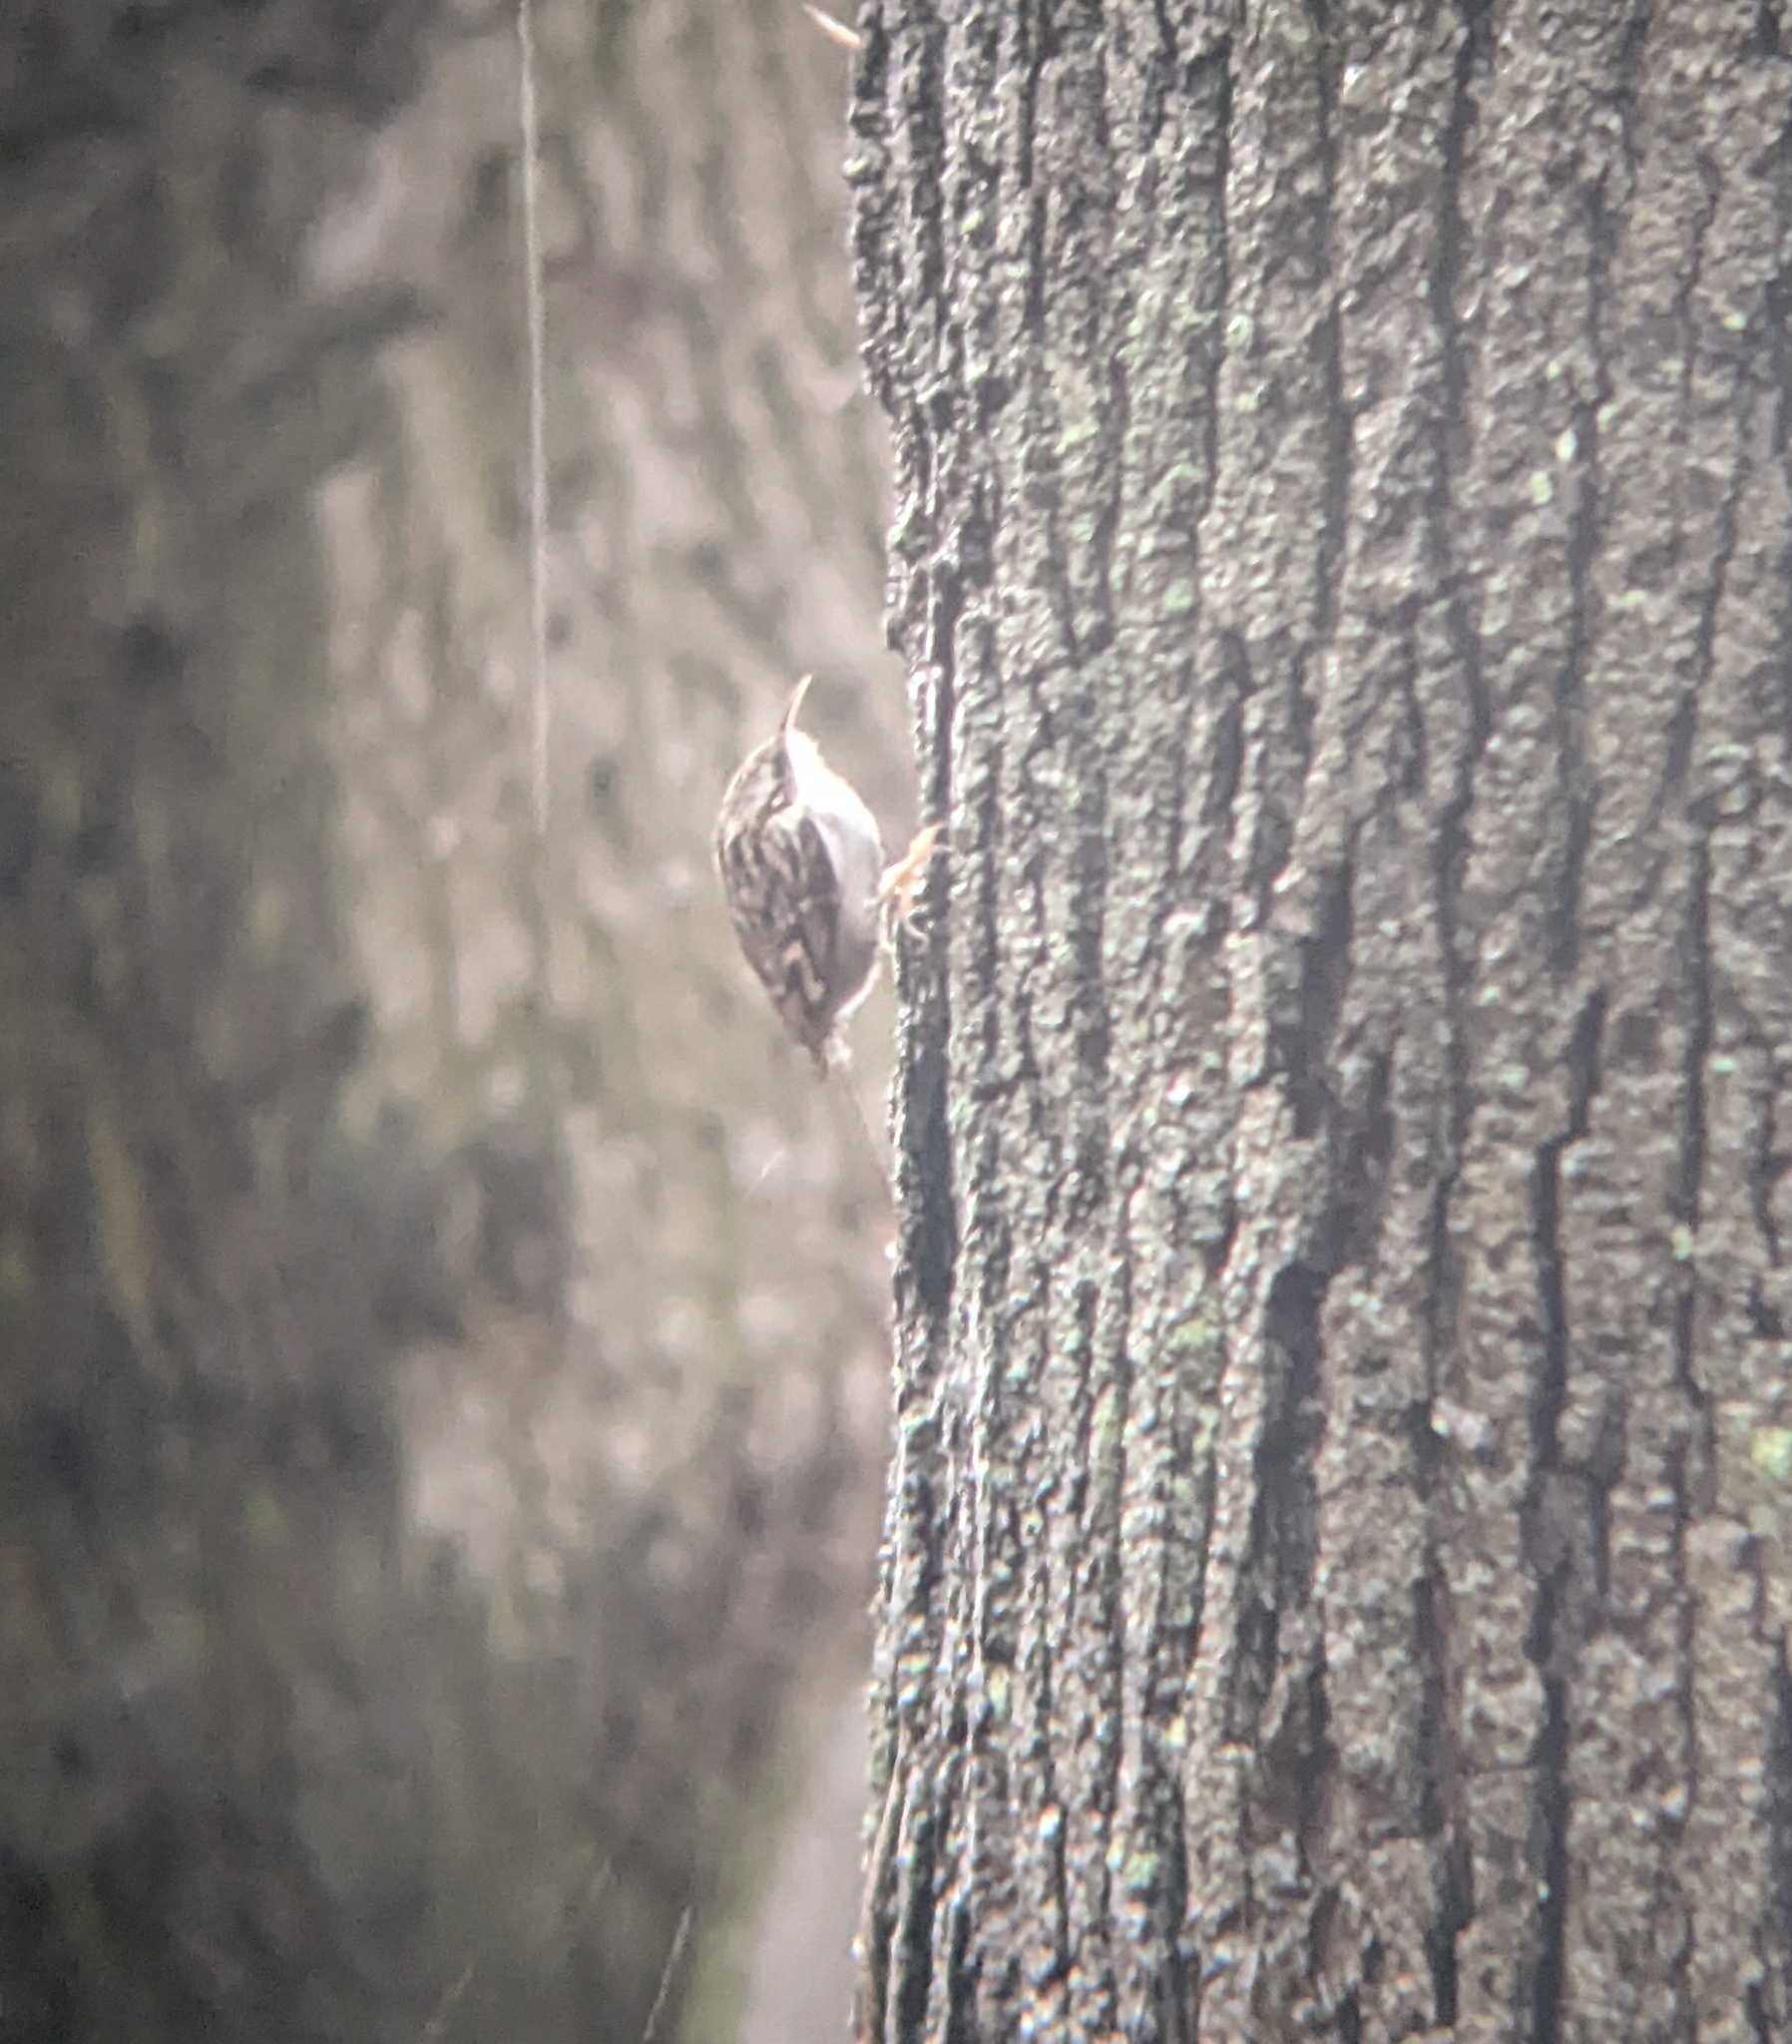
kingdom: Animalia
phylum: Chordata
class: Aves
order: Passeriformes
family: Certhiidae
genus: Certhia
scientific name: Certhia brachydactyla
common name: Short-toed treecreeper
